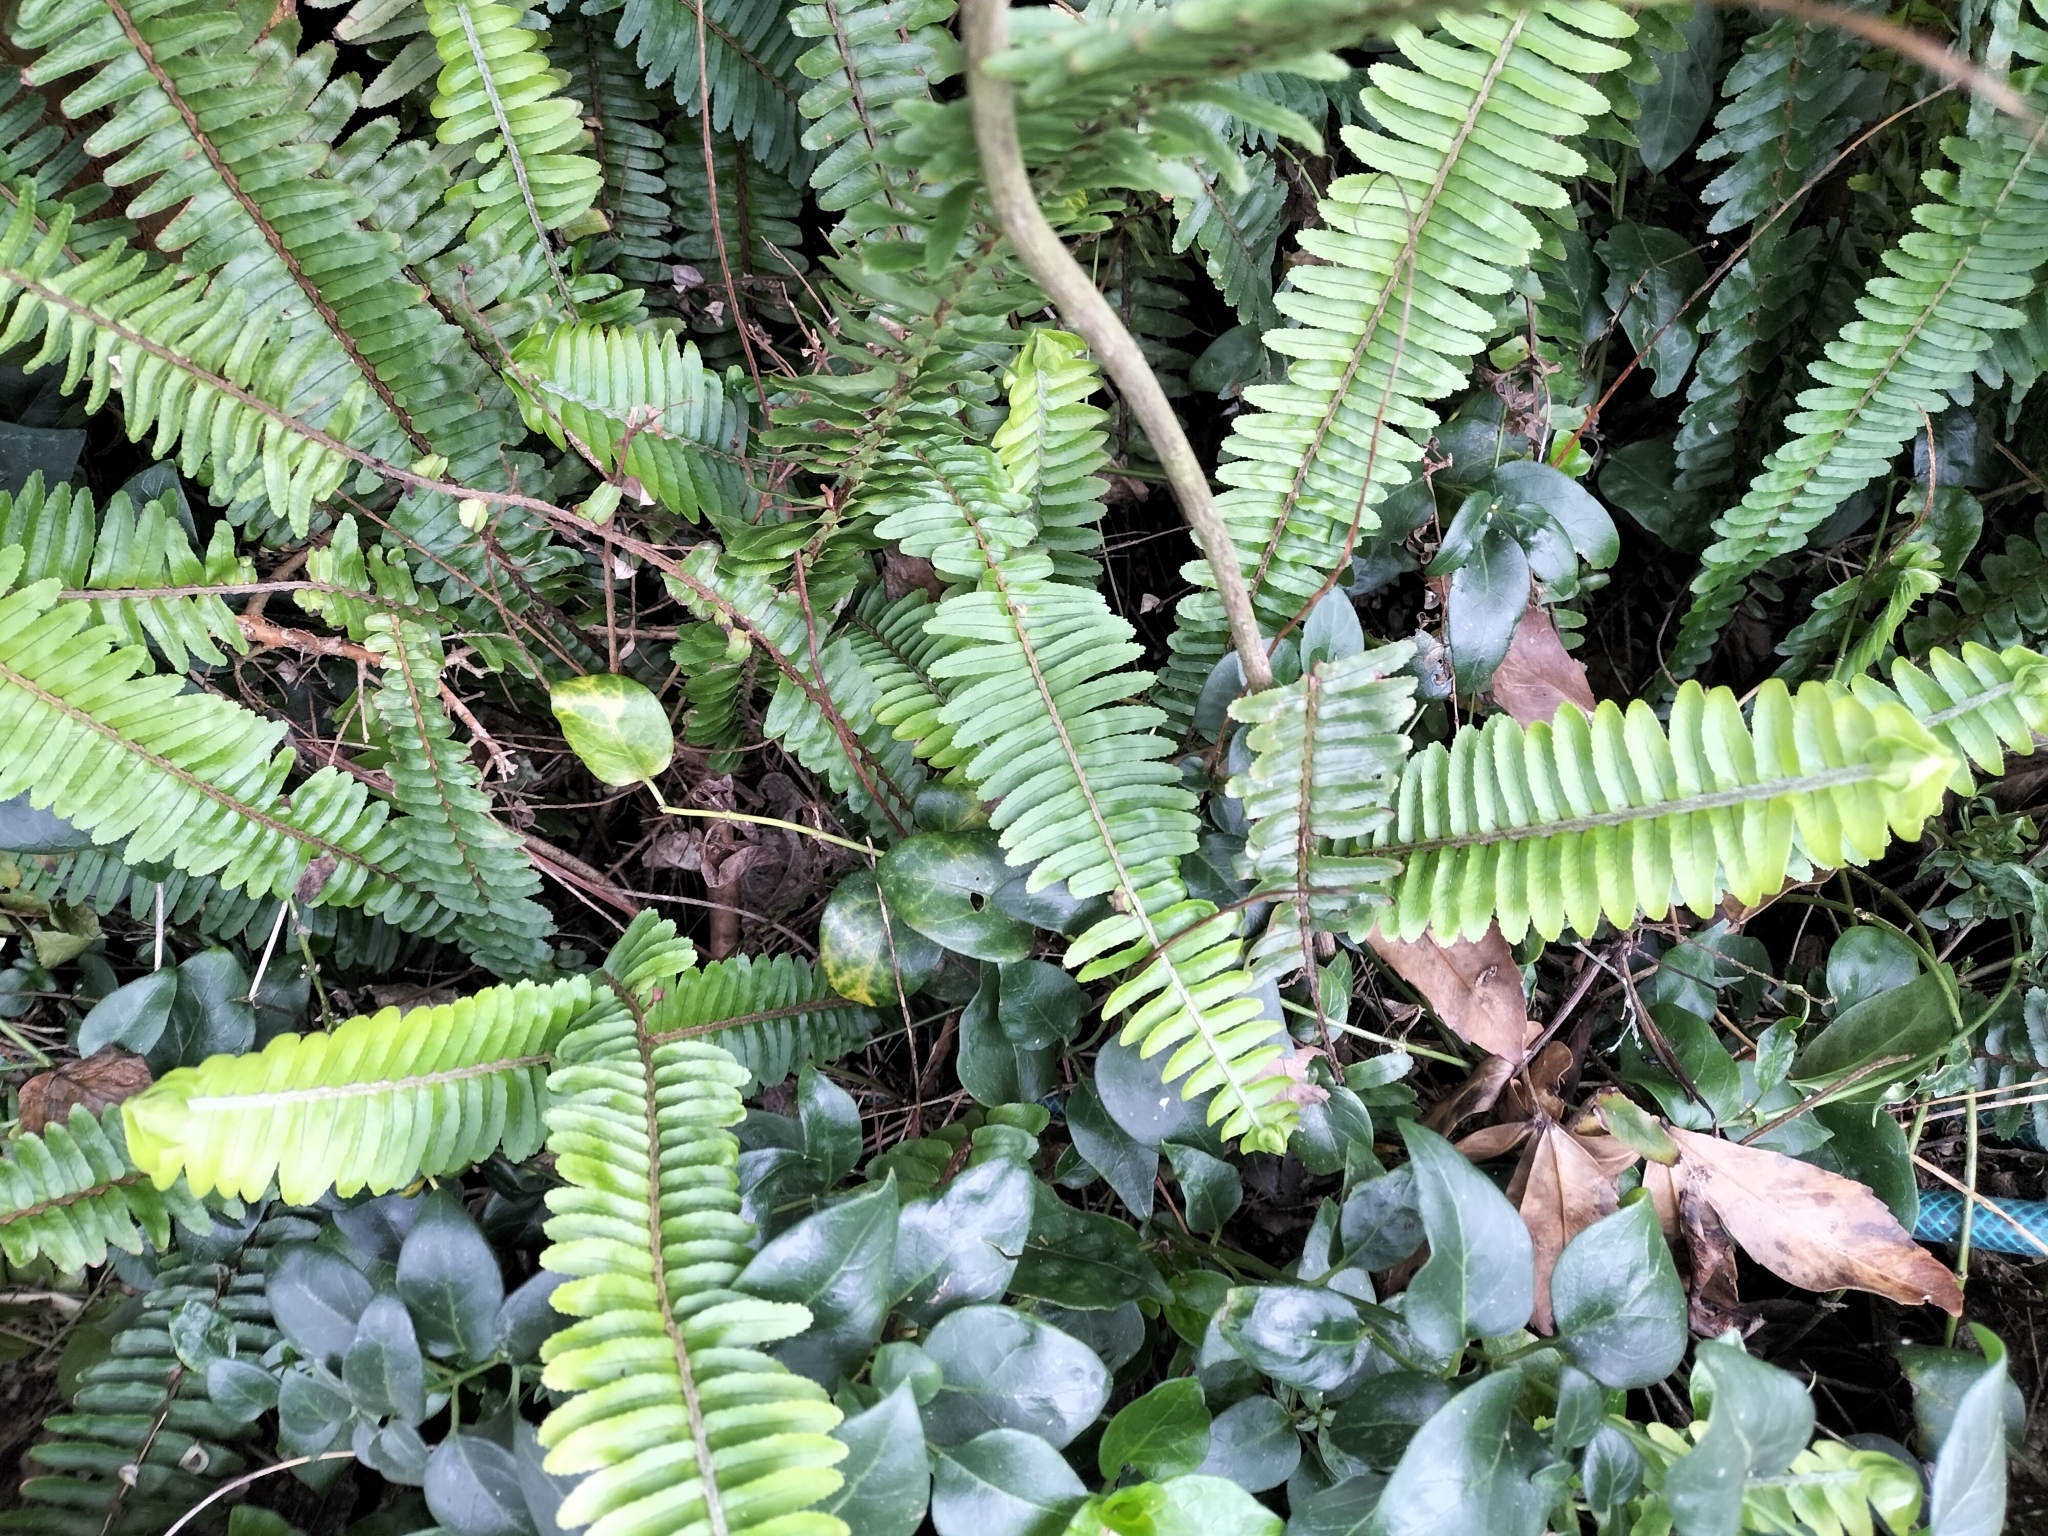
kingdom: Plantae
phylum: Tracheophyta
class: Polypodiopsida
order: Polypodiales
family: Nephrolepidaceae
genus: Nephrolepis
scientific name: Nephrolepis cordifolia
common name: Narrow swordfern
